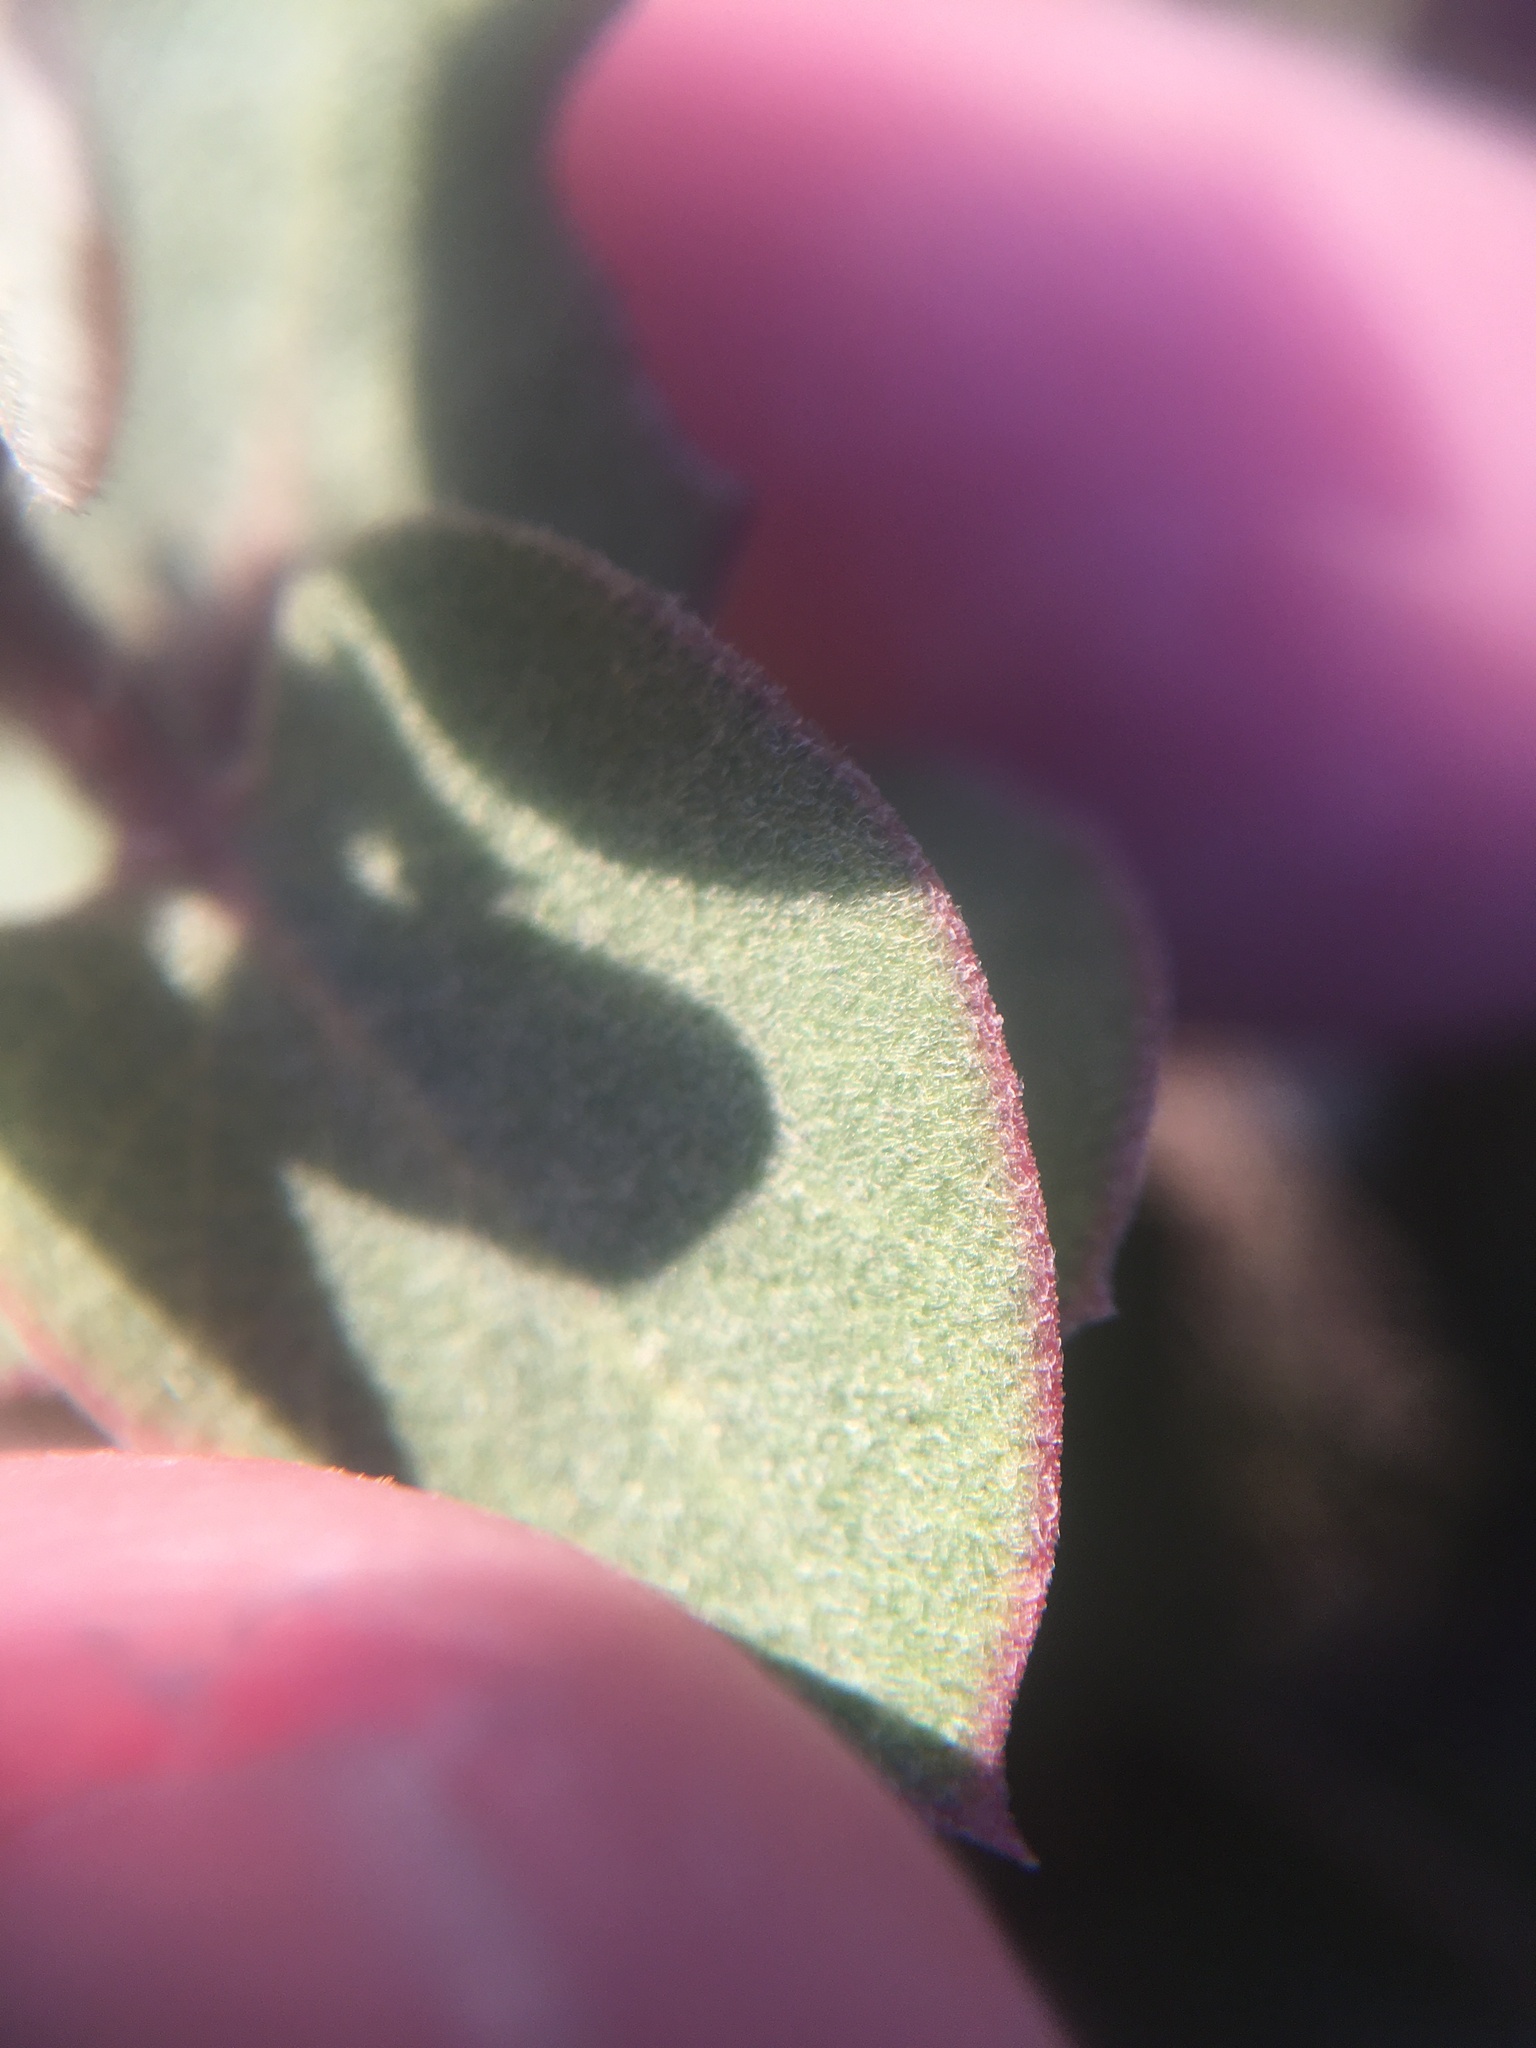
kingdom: Plantae
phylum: Tracheophyta
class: Magnoliopsida
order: Ericales
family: Ericaceae
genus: Arctostaphylos
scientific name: Arctostaphylos osoensis
